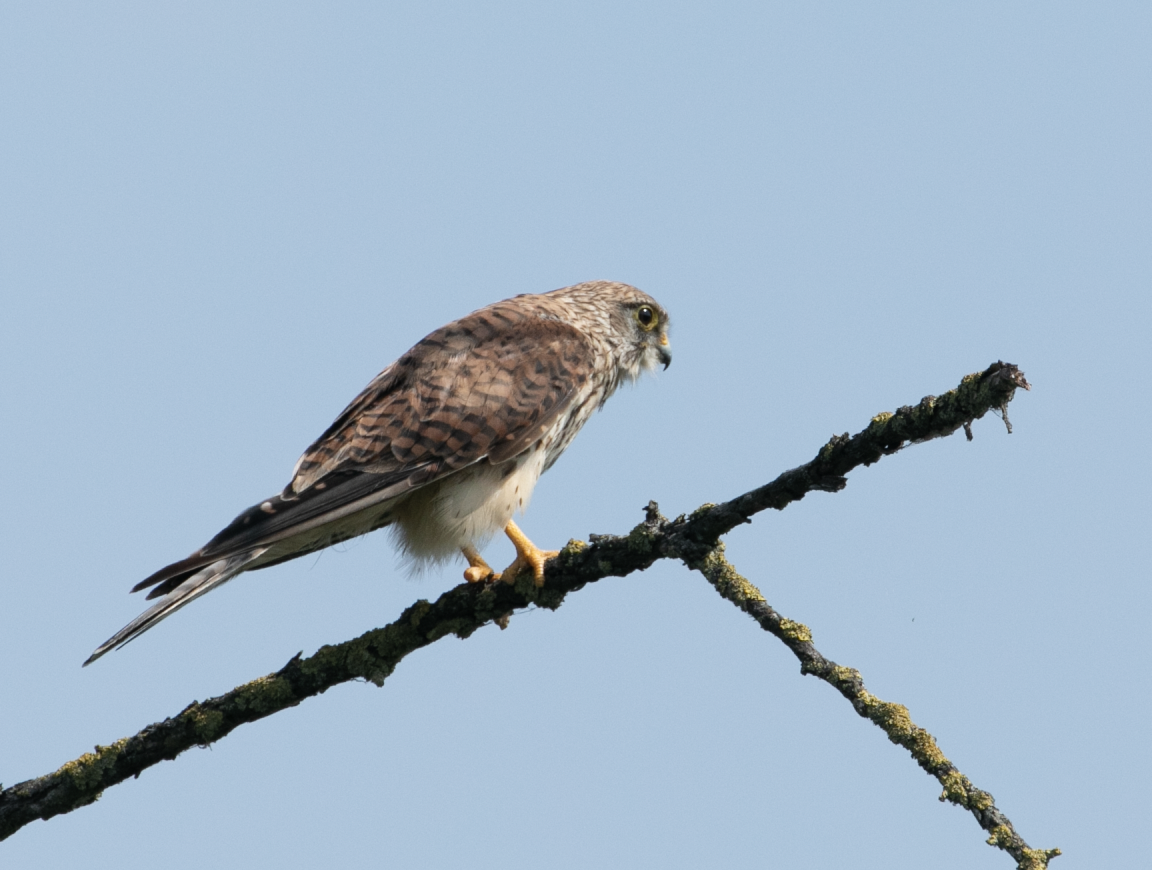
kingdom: Animalia
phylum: Chordata
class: Aves
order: Falconiformes
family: Falconidae
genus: Falco
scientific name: Falco tinnunculus
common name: Common kestrel
